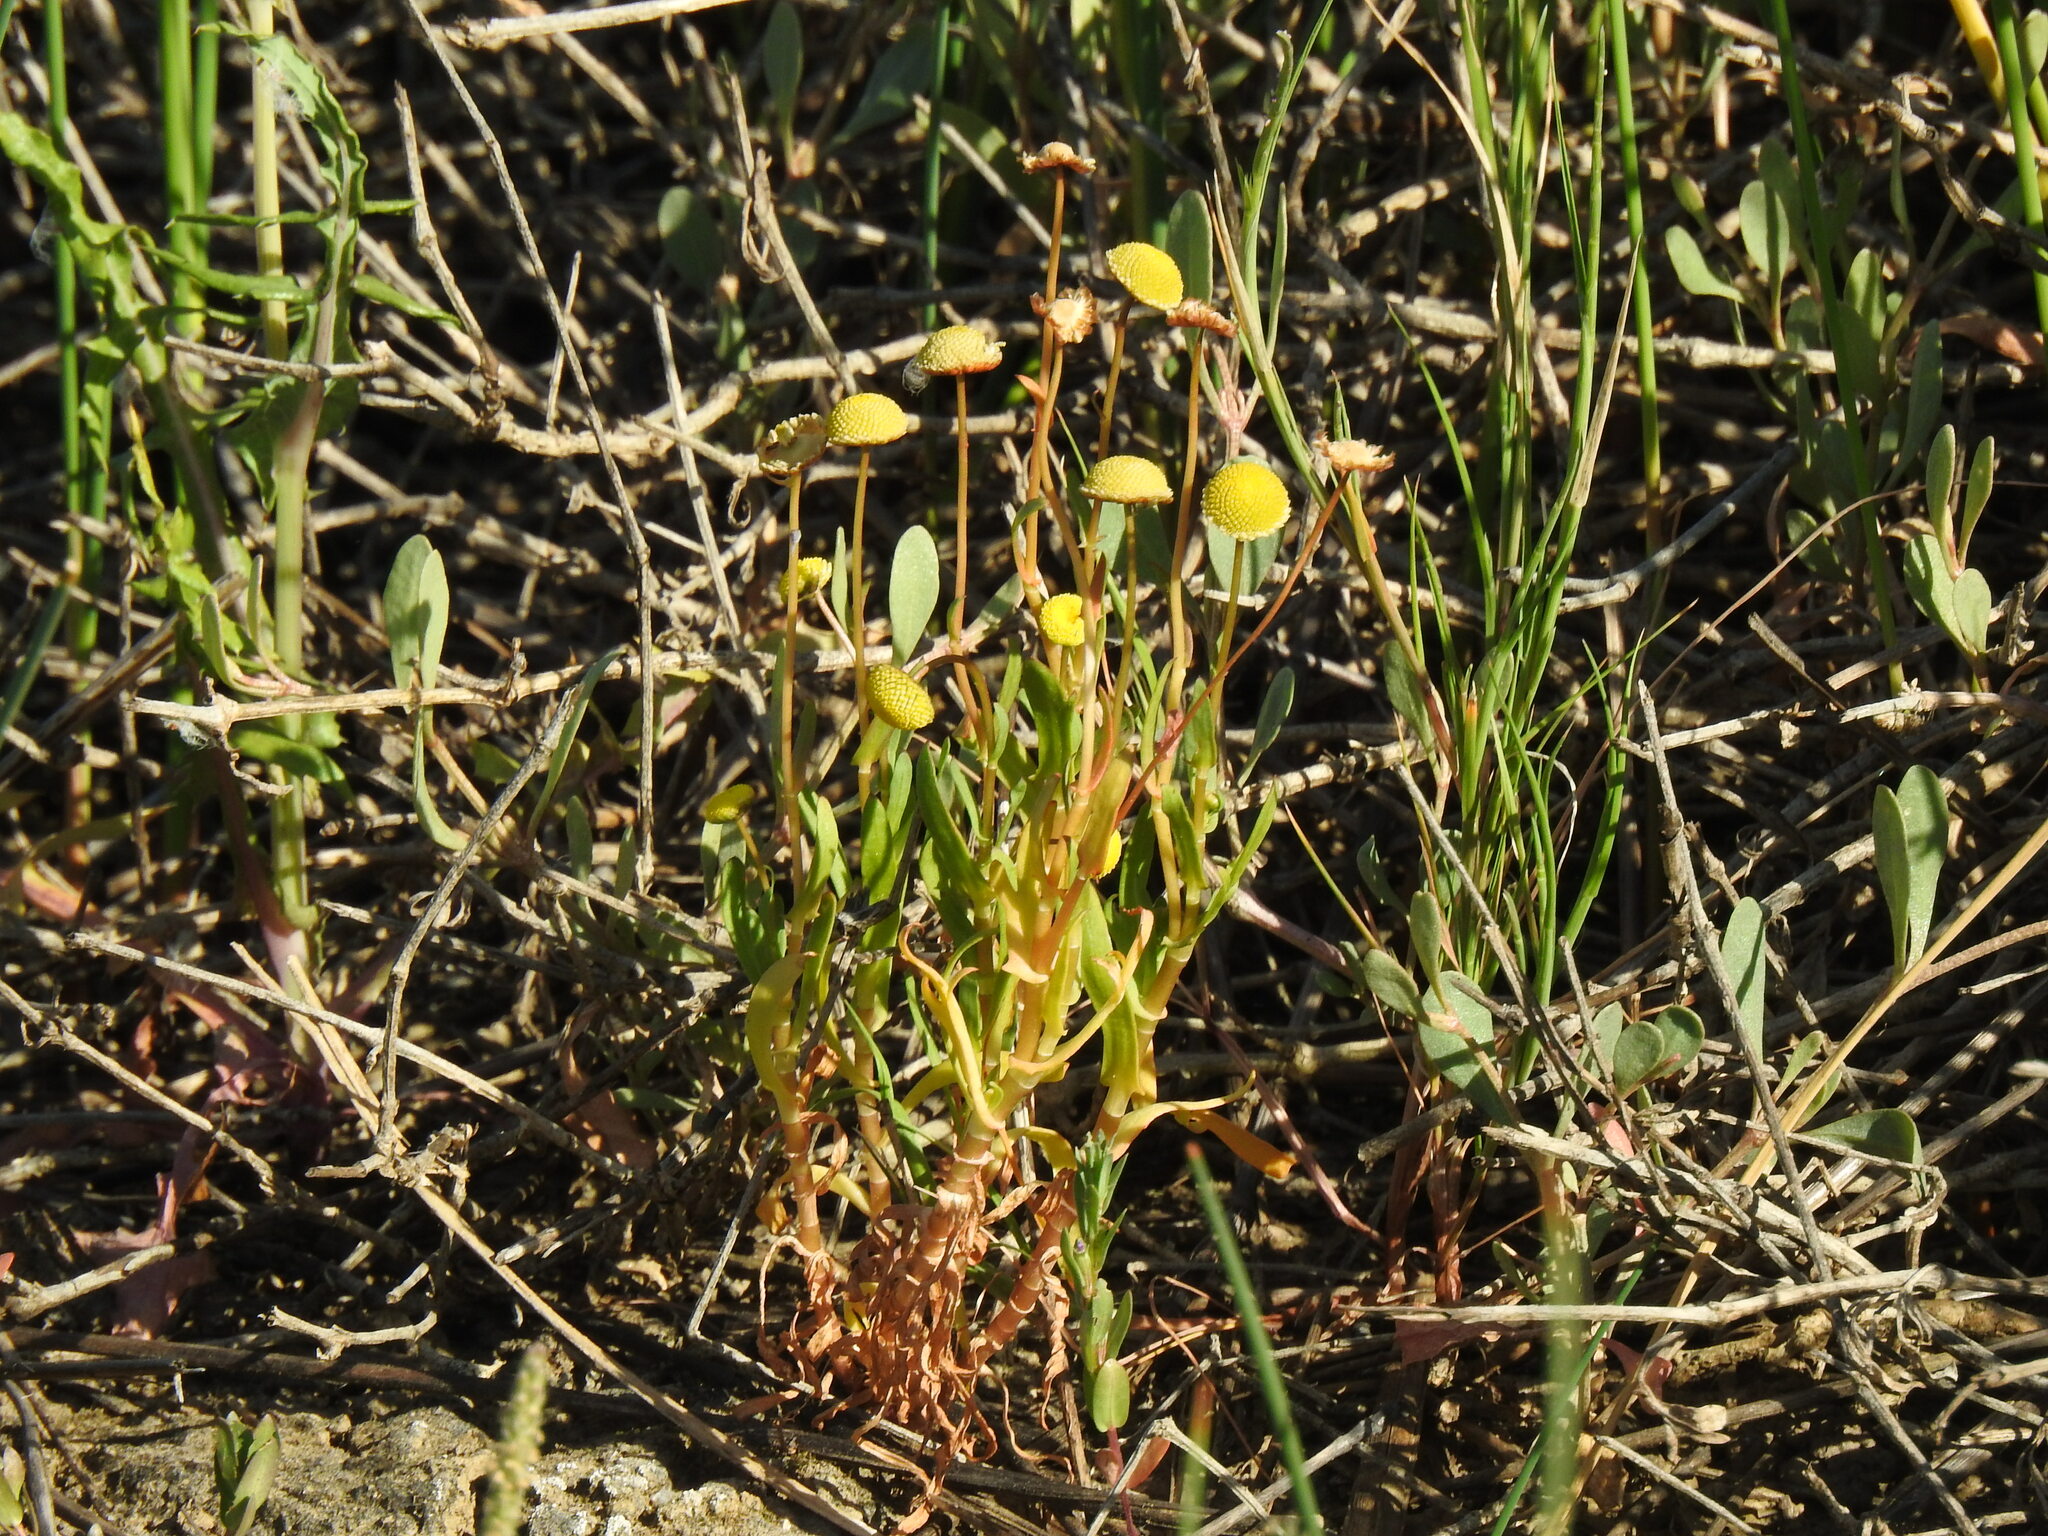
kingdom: Plantae
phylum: Tracheophyta
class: Magnoliopsida
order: Asterales
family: Asteraceae
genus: Cotula
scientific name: Cotula coronopifolia
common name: Buttonweed
